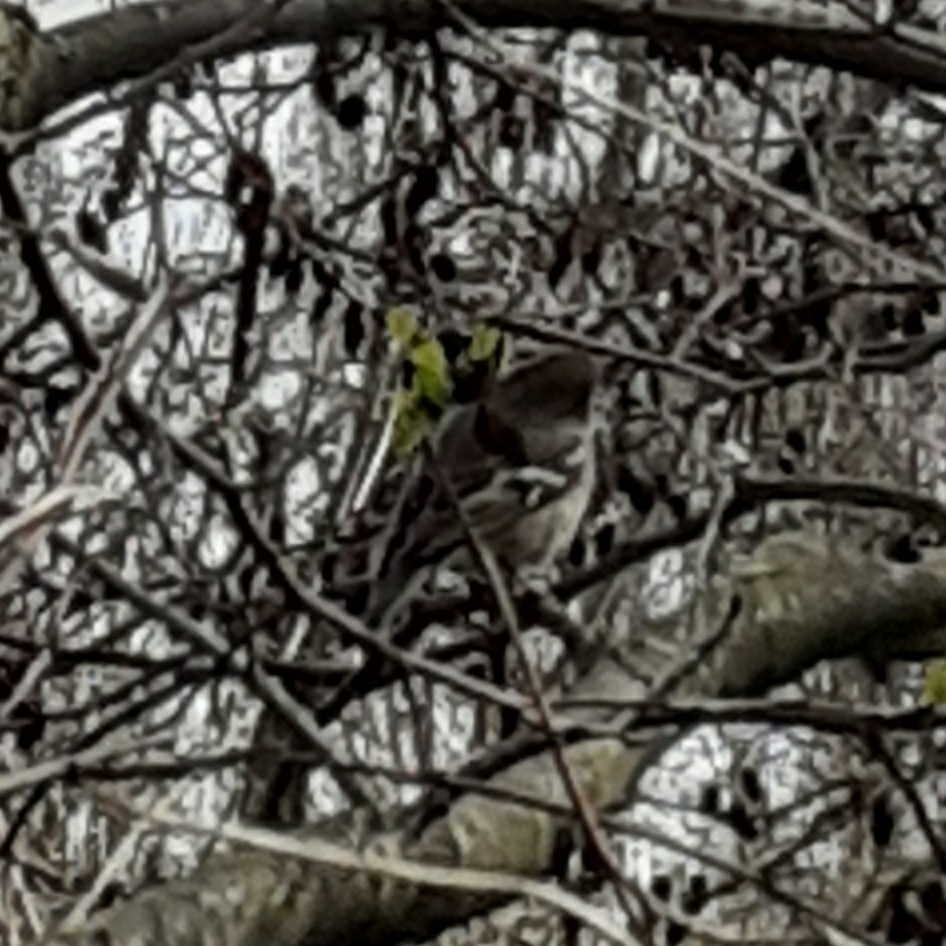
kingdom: Animalia
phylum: Chordata
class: Aves
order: Passeriformes
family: Fringillidae
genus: Fringilla
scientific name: Fringilla coelebs
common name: Common chaffinch
